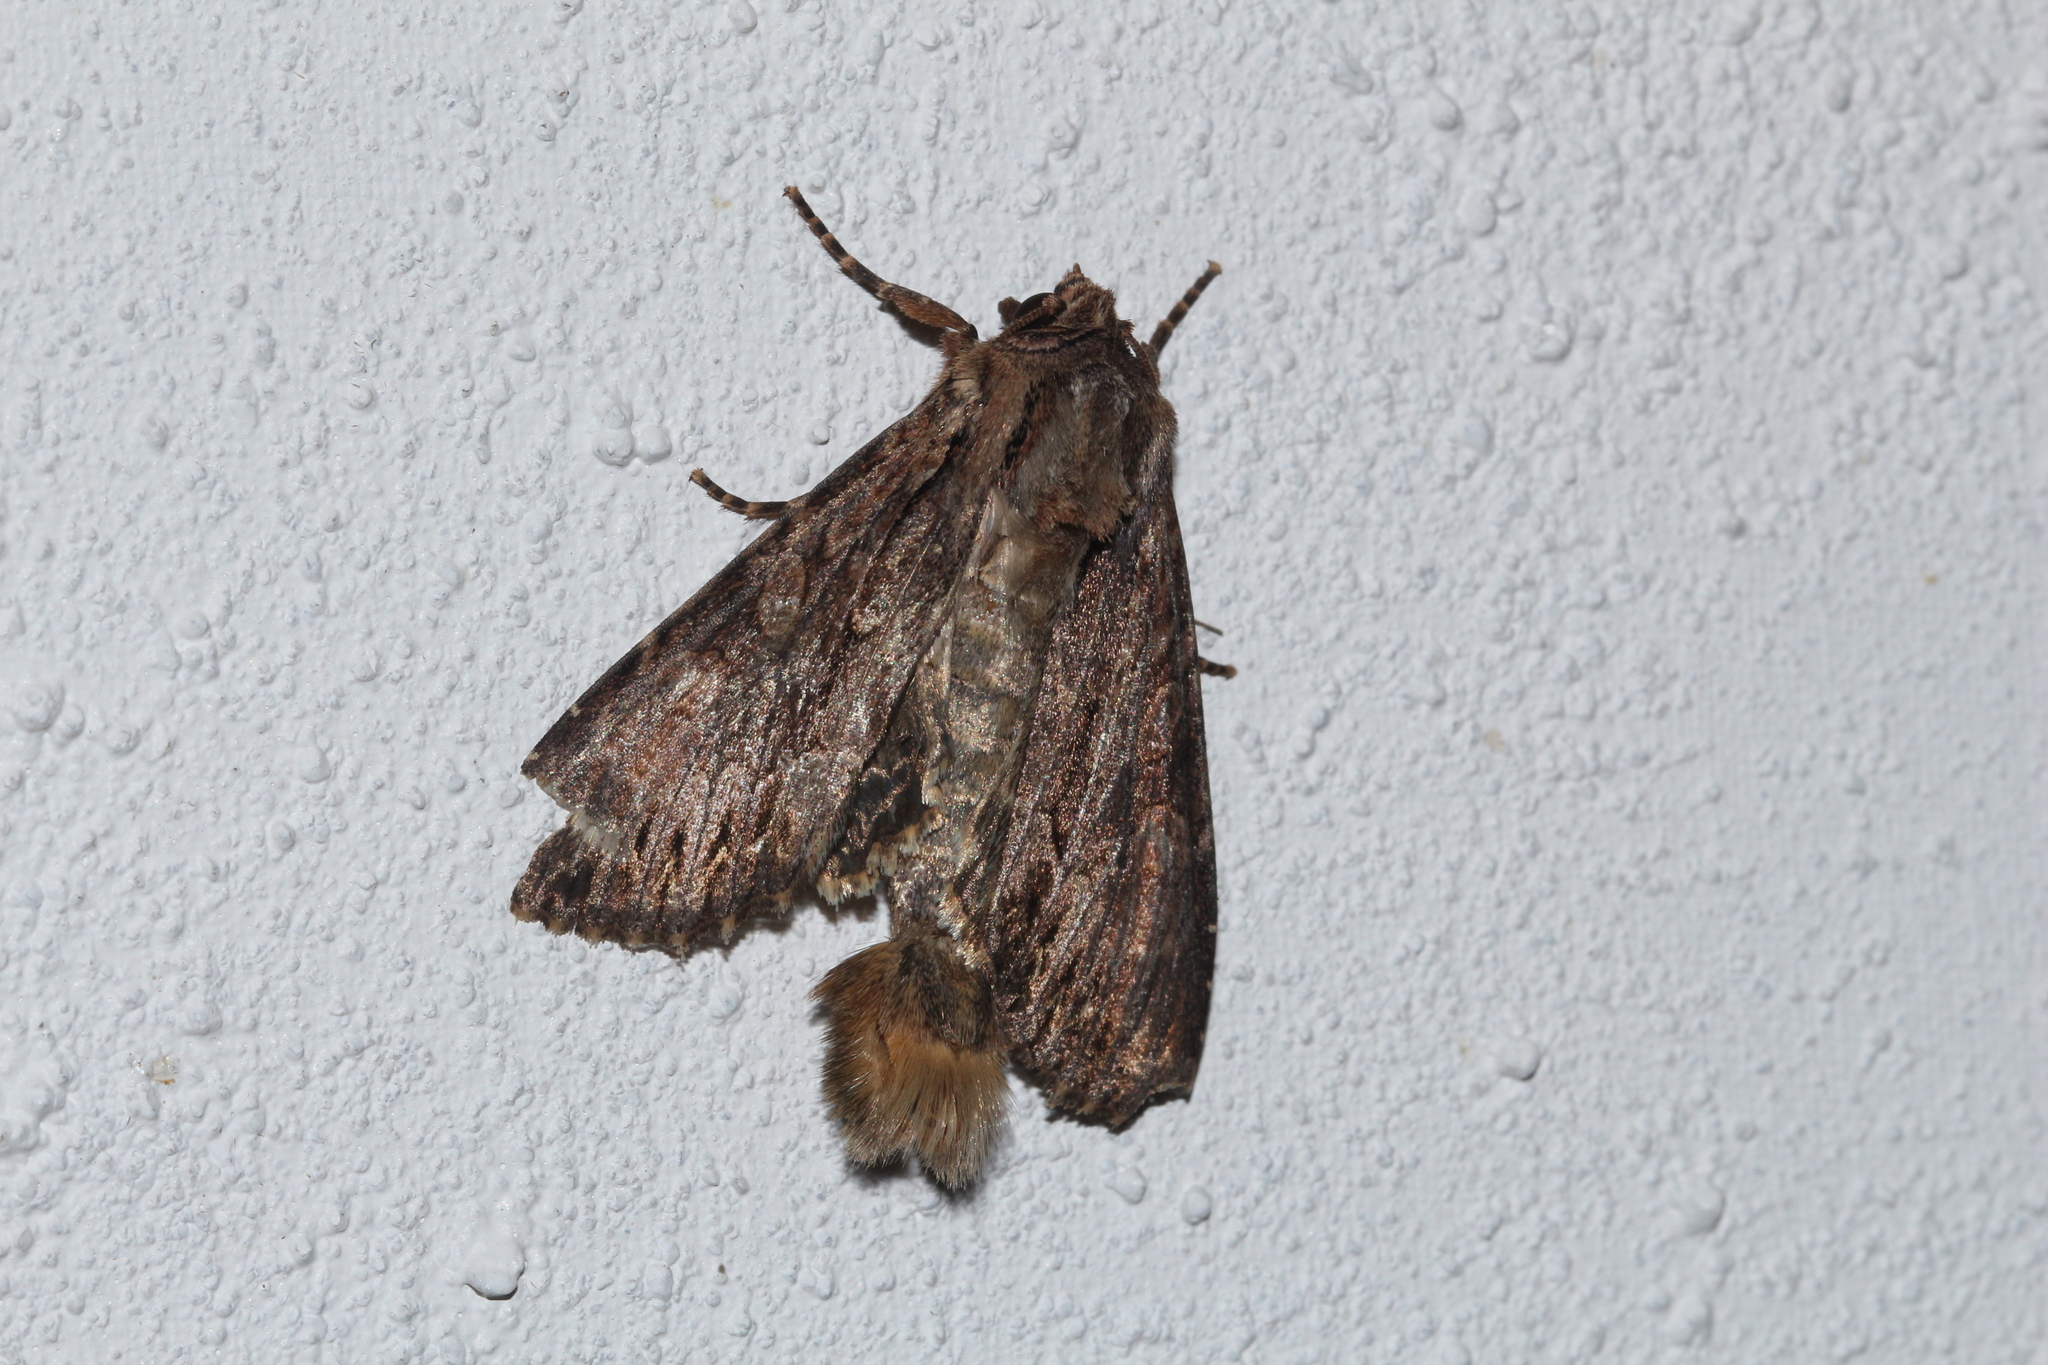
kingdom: Animalia
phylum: Arthropoda
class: Insecta
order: Lepidoptera
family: Noctuidae
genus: Apamea
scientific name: Apamea monoglypha
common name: Dark arches
